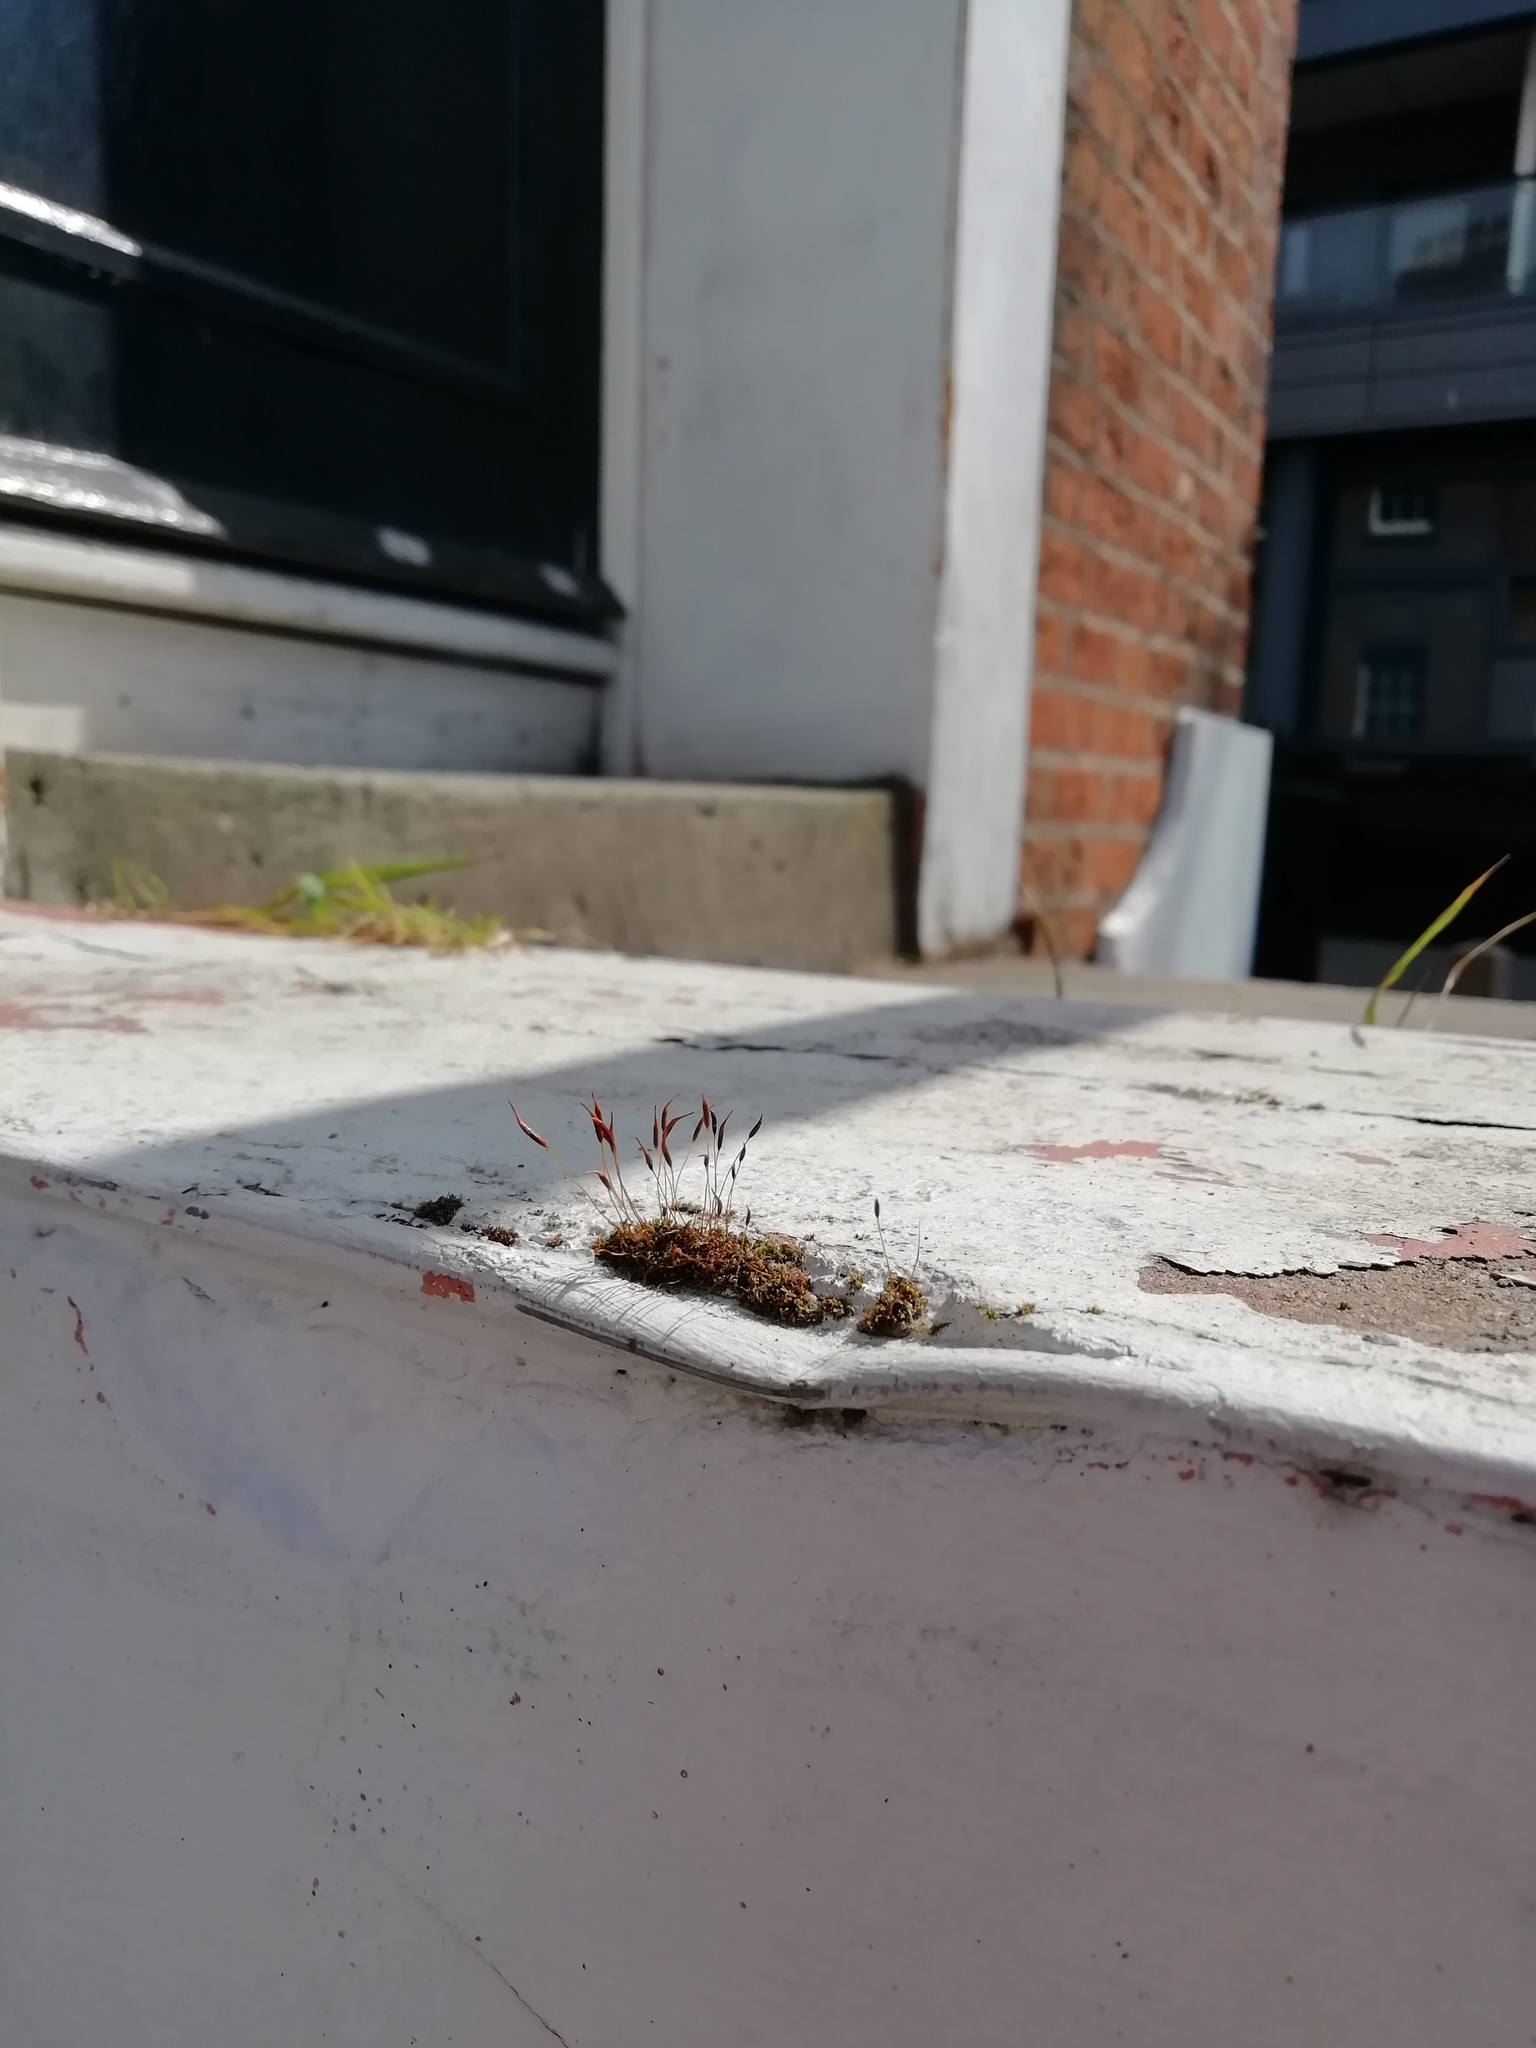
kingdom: Plantae
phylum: Bryophyta
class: Bryopsida
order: Pottiales
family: Pottiaceae
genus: Tortula
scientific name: Tortula muralis
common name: Wall screw-moss
